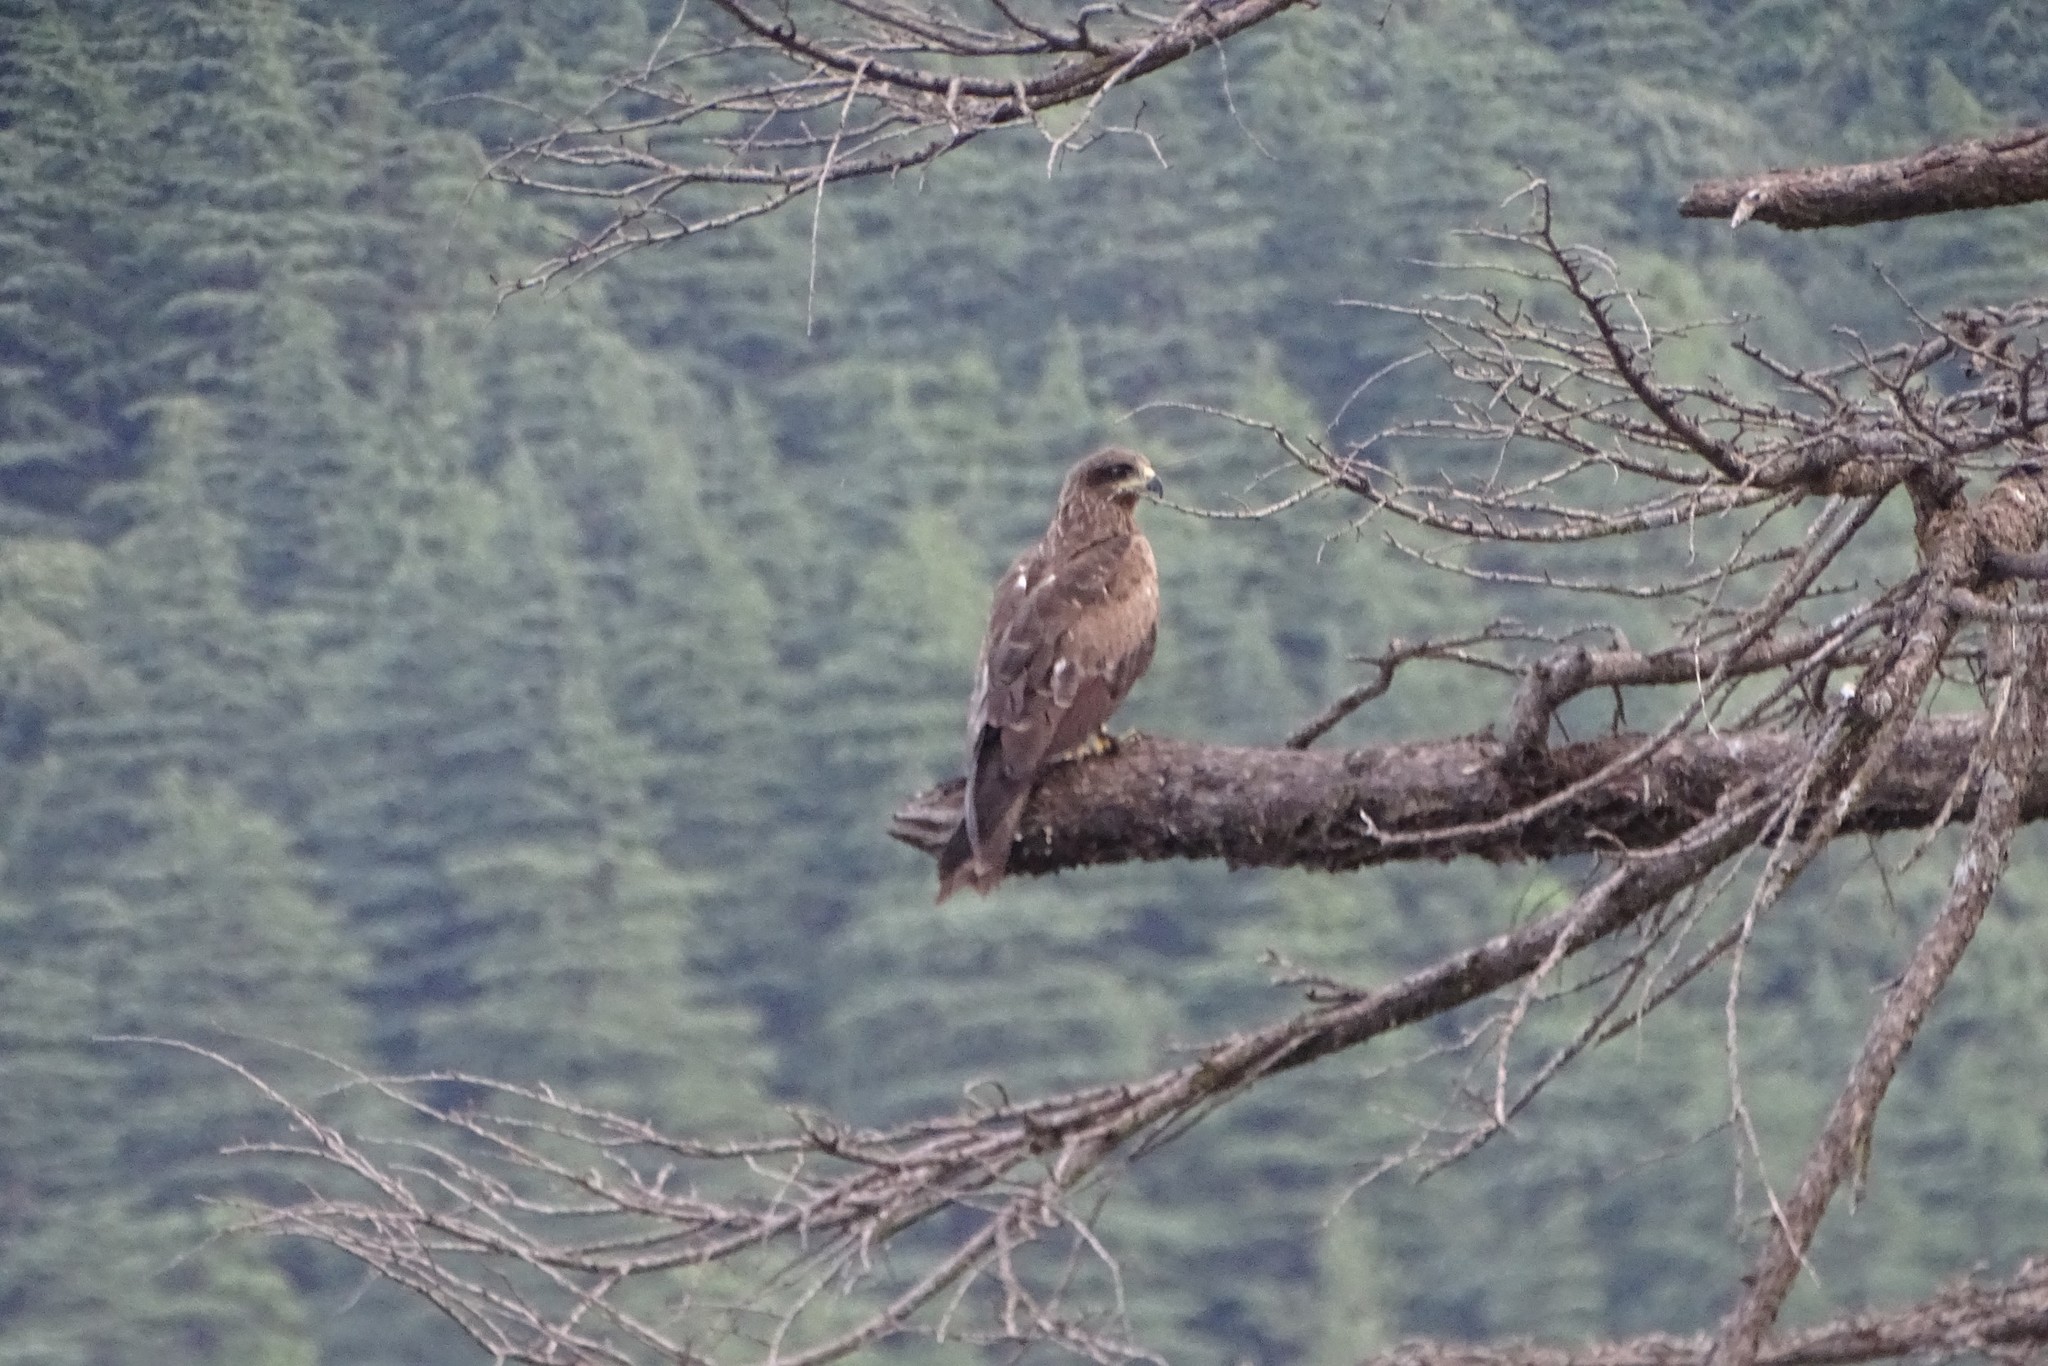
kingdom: Animalia
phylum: Chordata
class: Aves
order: Accipitriformes
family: Accipitridae
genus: Milvus
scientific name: Milvus migrans
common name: Black kite
